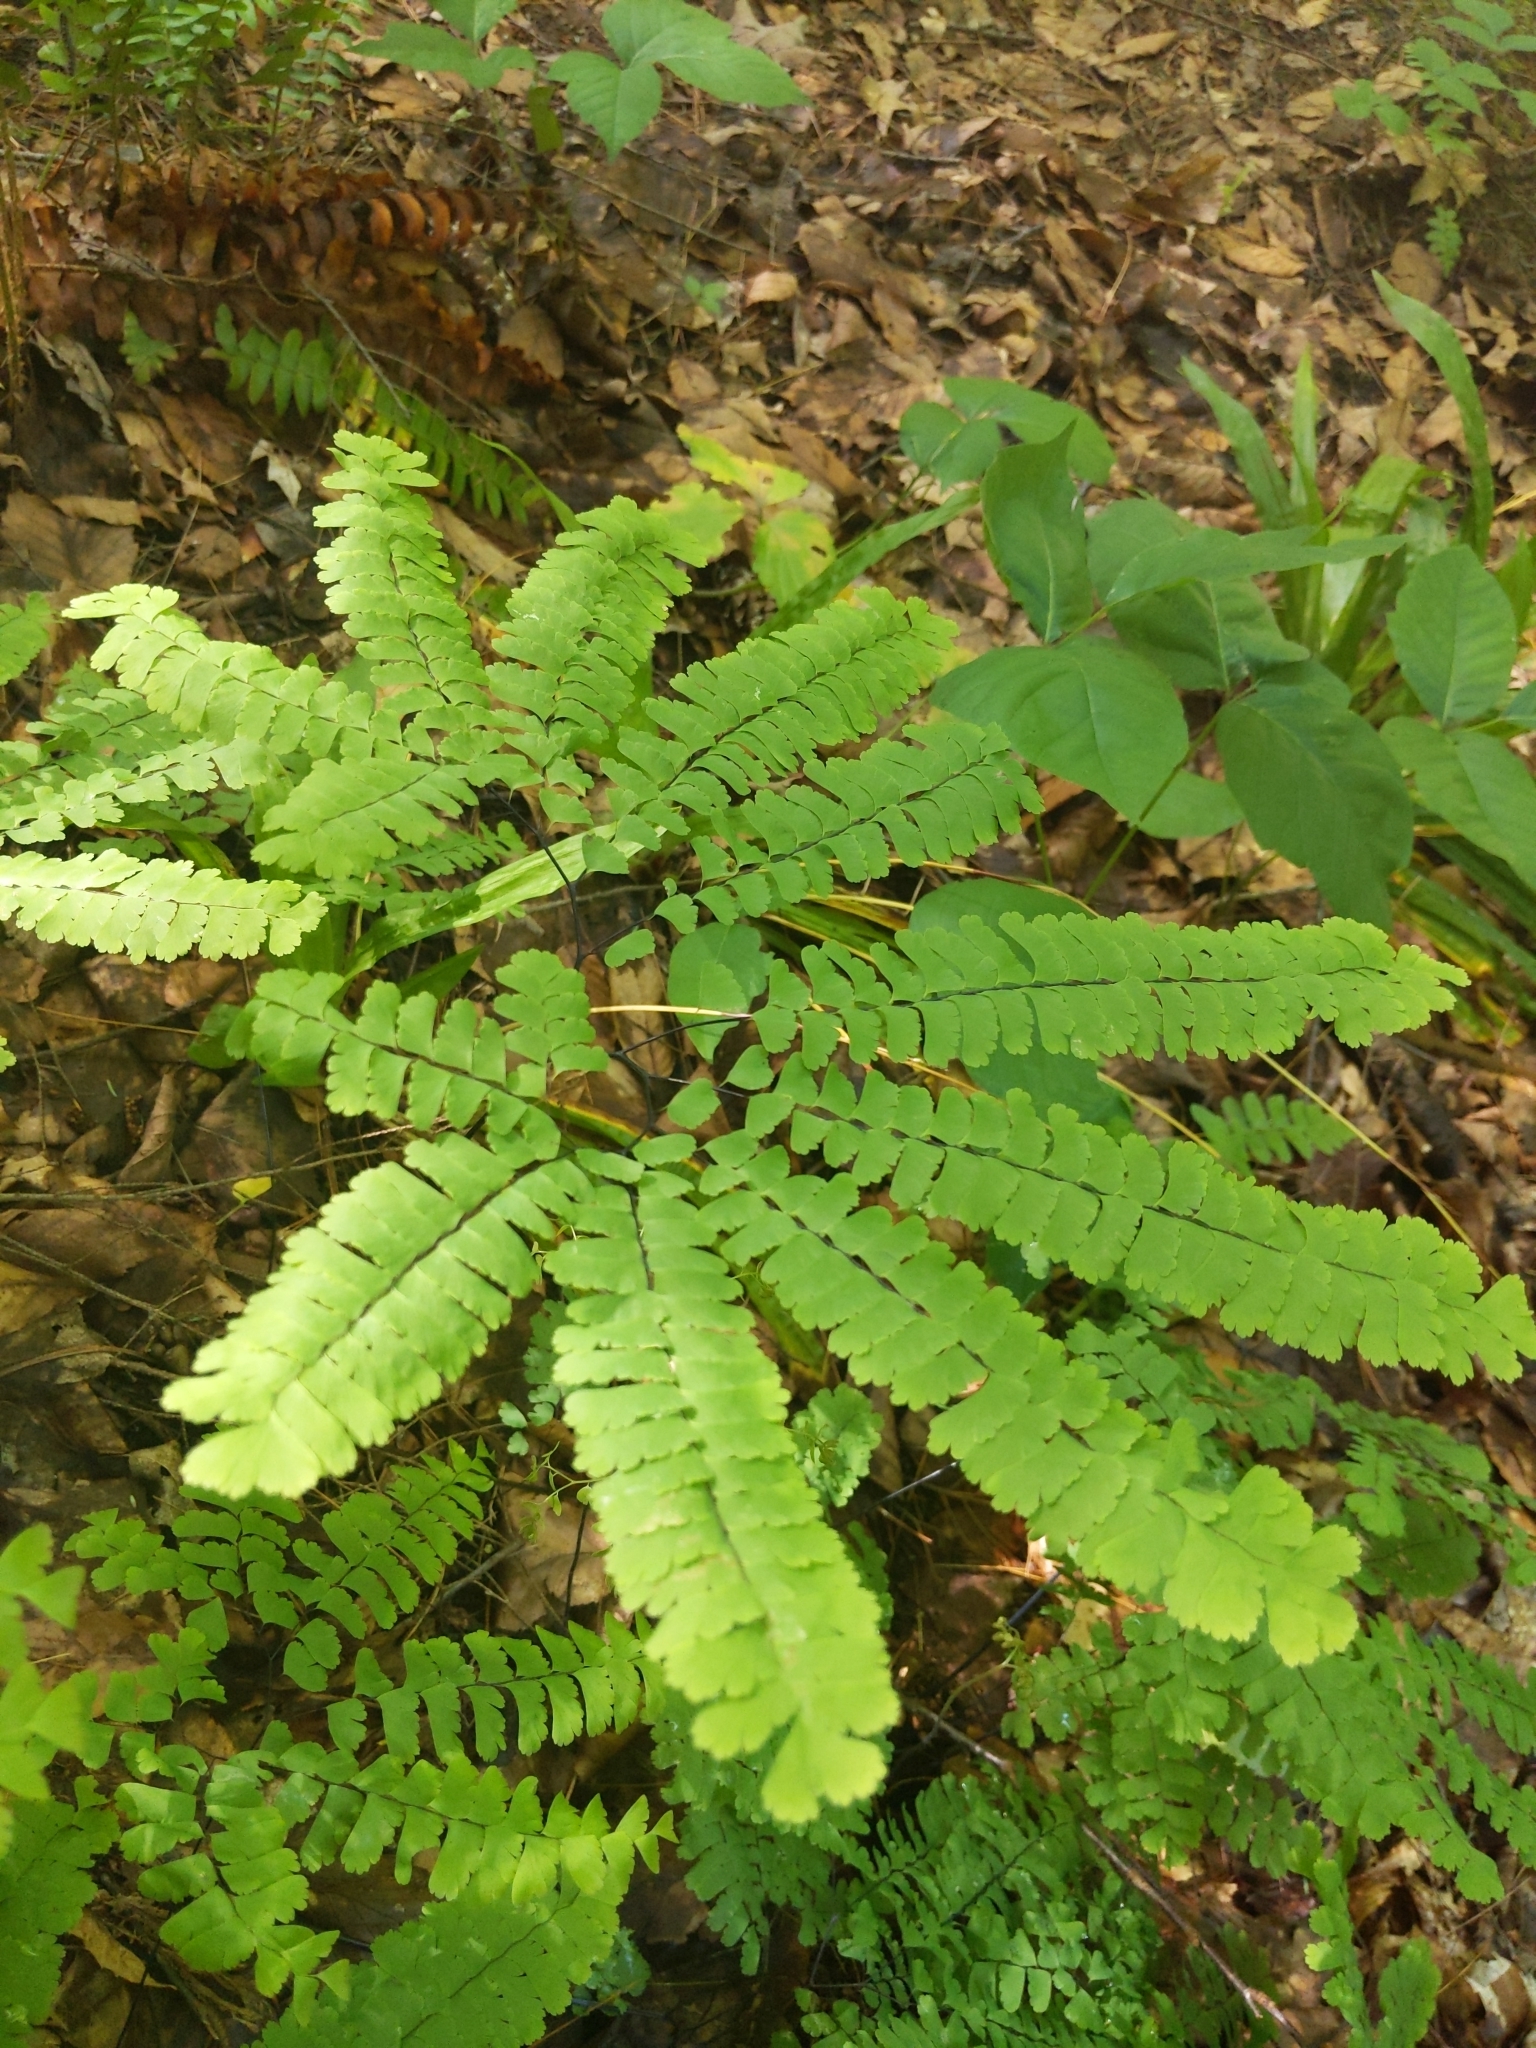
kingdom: Plantae
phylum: Tracheophyta
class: Polypodiopsida
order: Polypodiales
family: Pteridaceae
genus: Adiantum
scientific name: Adiantum pedatum
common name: Five-finger fern
